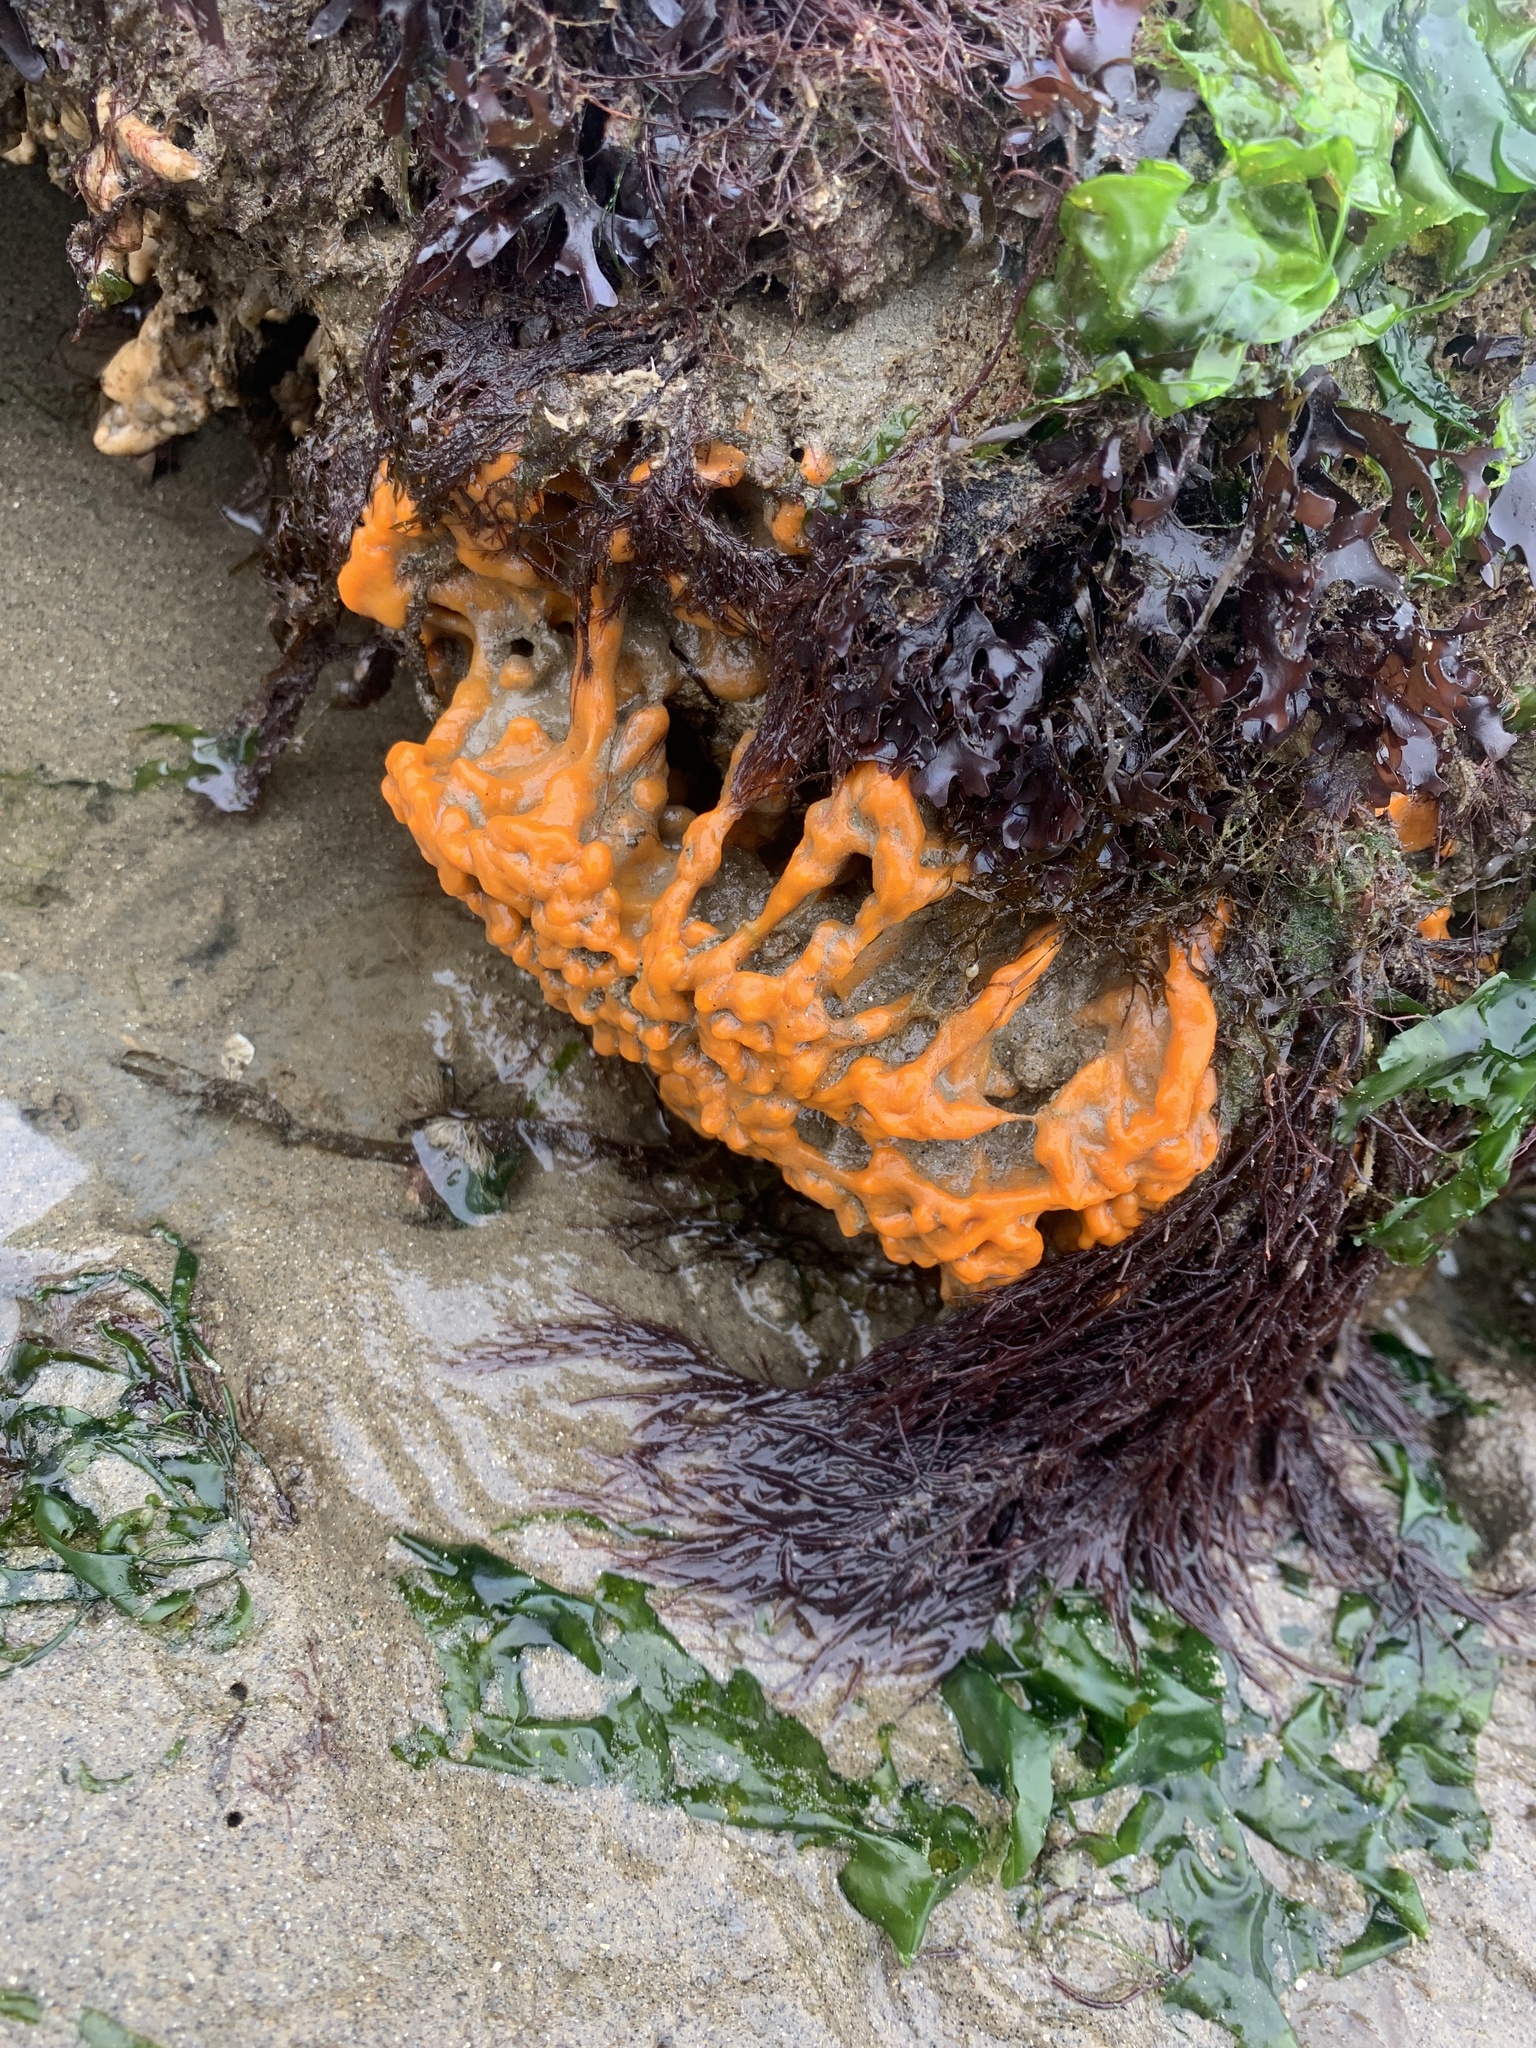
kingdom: Animalia
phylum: Porifera
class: Demospongiae
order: Suberitida
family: Halichondriidae
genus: Halichondria
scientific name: Halichondria panicea
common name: Breadcrumb sponge
